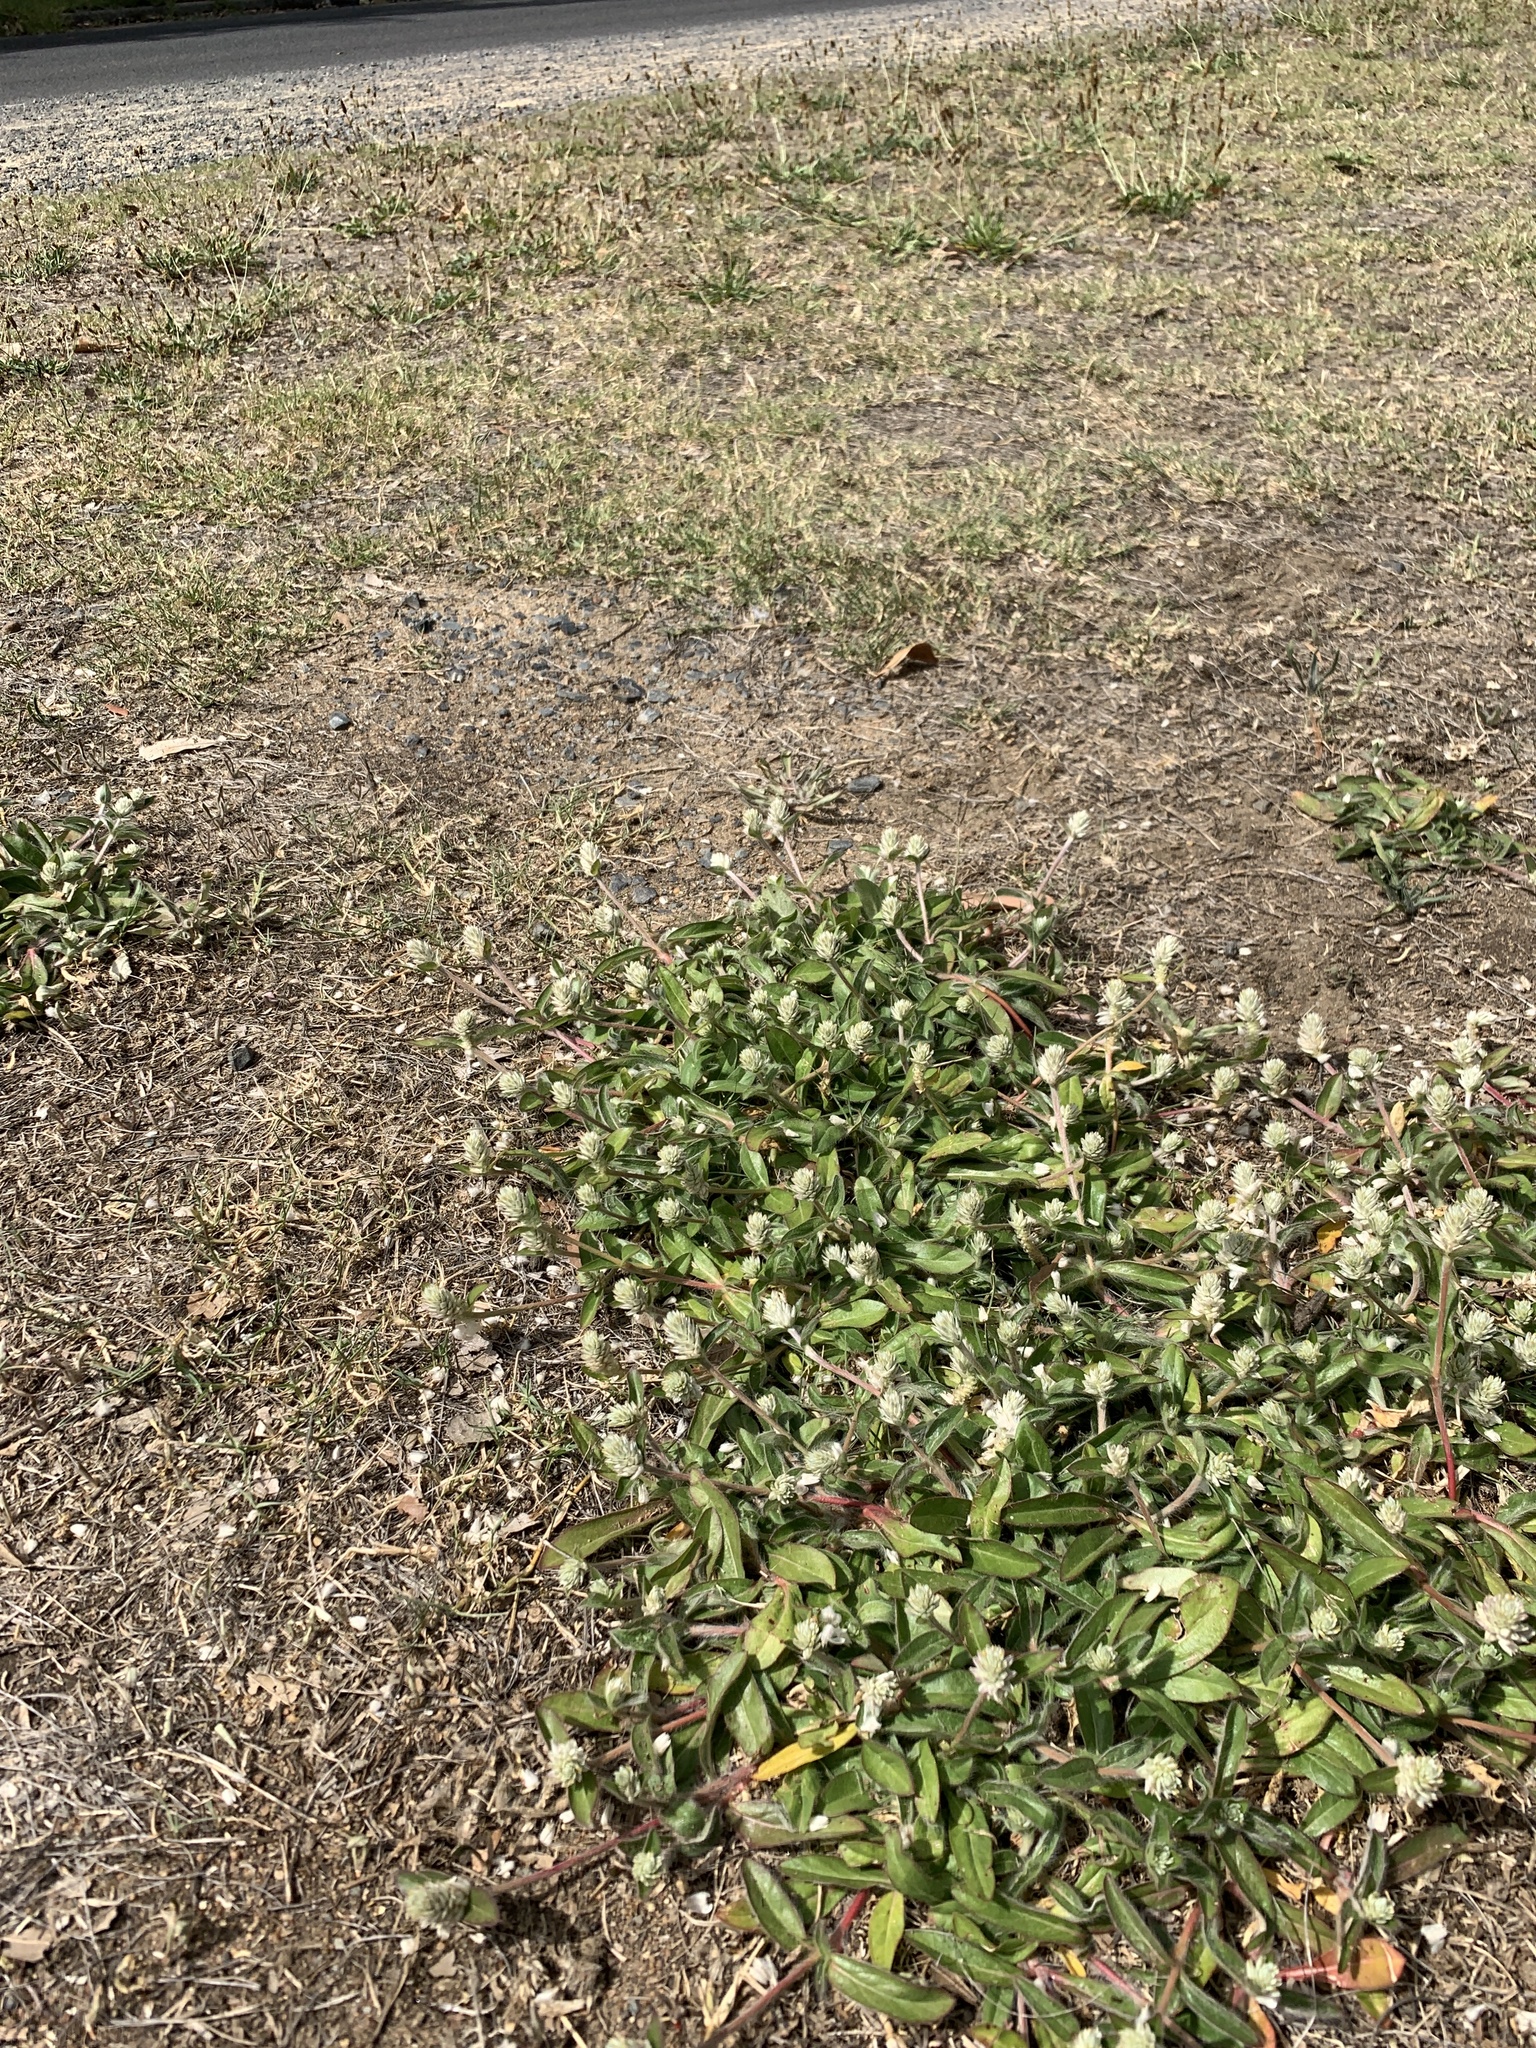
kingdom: Plantae
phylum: Tracheophyta
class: Magnoliopsida
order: Caryophyllales
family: Amaranthaceae
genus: Gomphrena
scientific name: Gomphrena celosioides
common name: Gomphrena-weed
